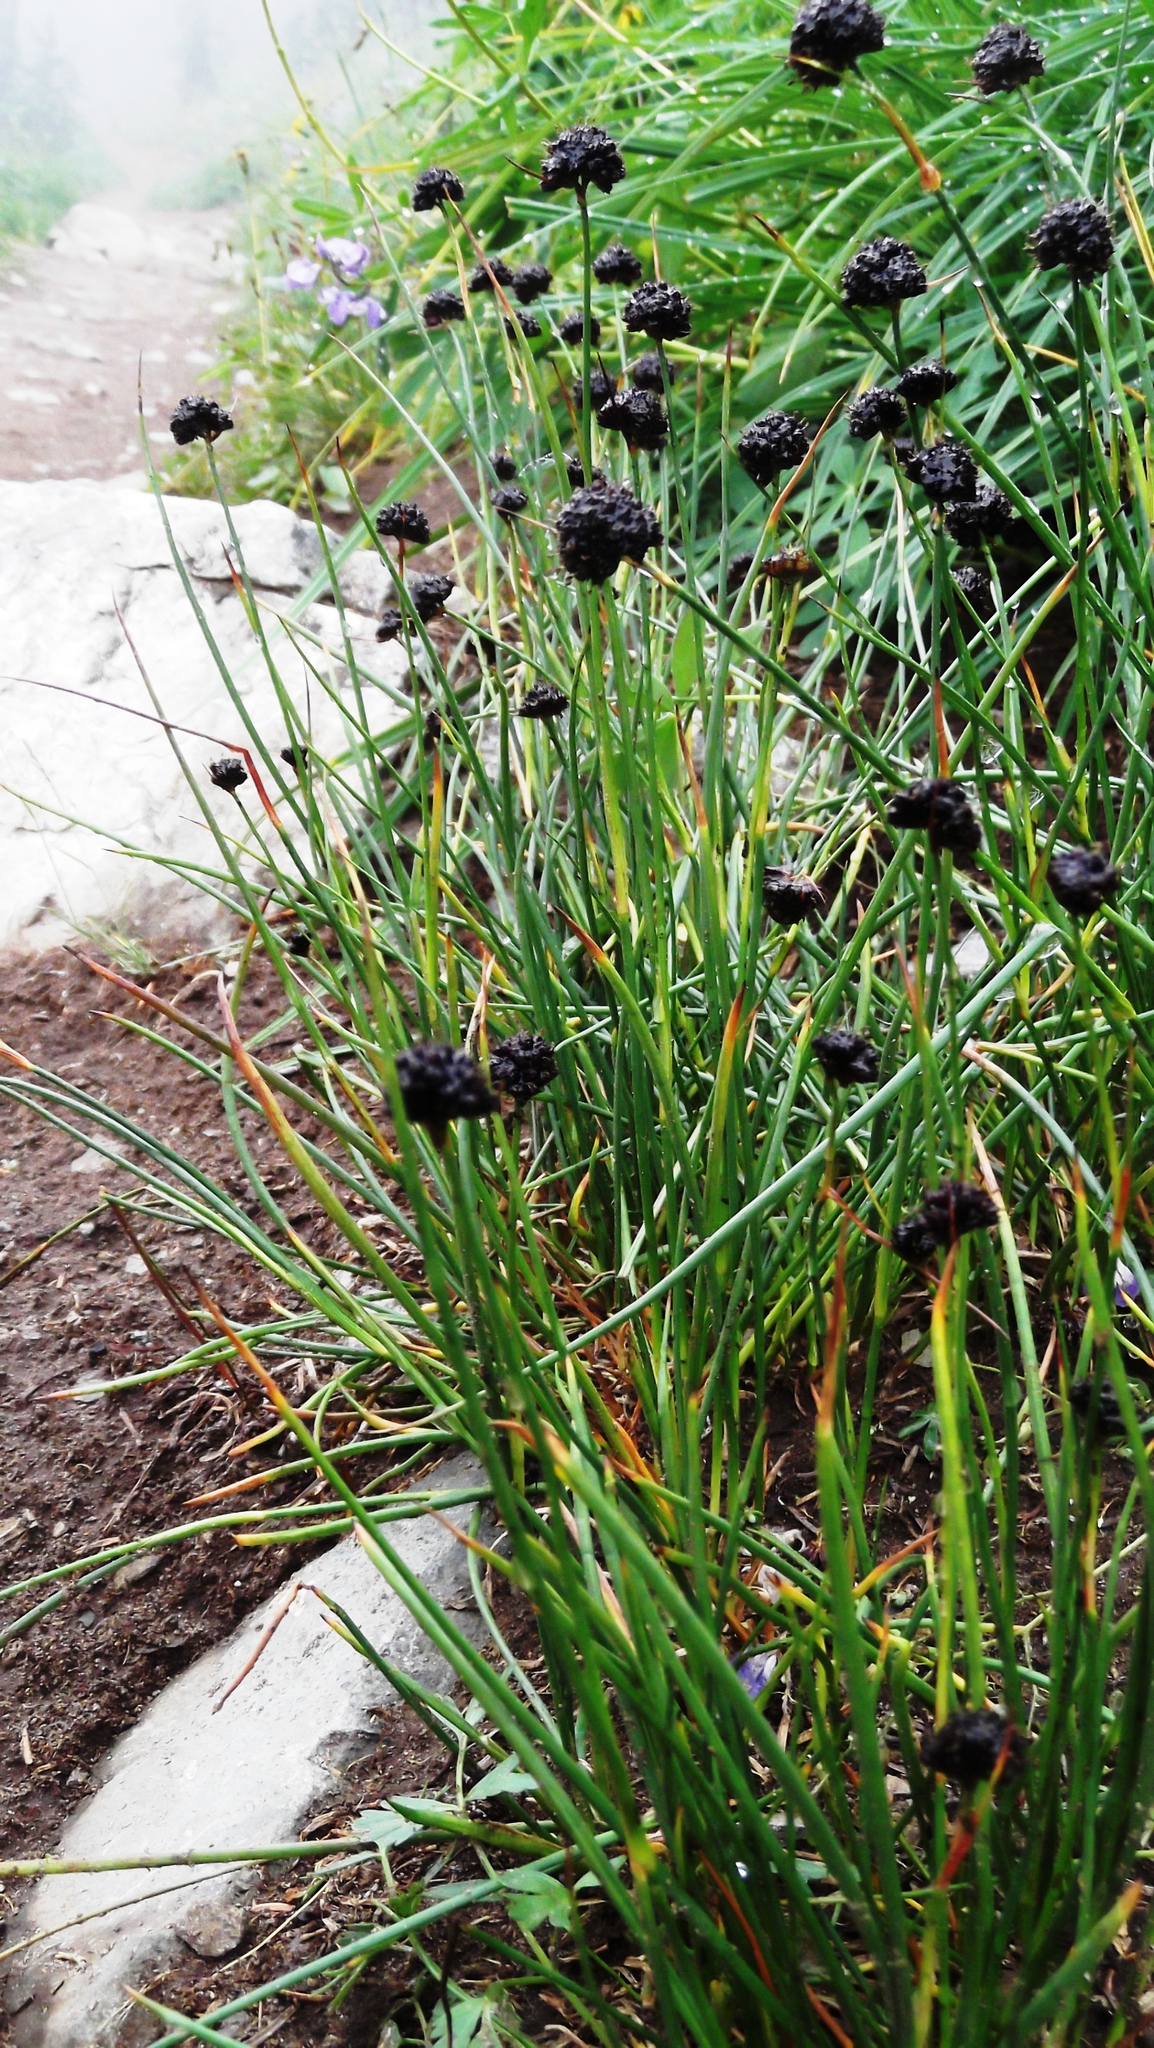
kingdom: Plantae
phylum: Tracheophyta
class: Liliopsida
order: Poales
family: Juncaceae
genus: Juncus
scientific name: Juncus mertensianus
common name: Merten's rush
